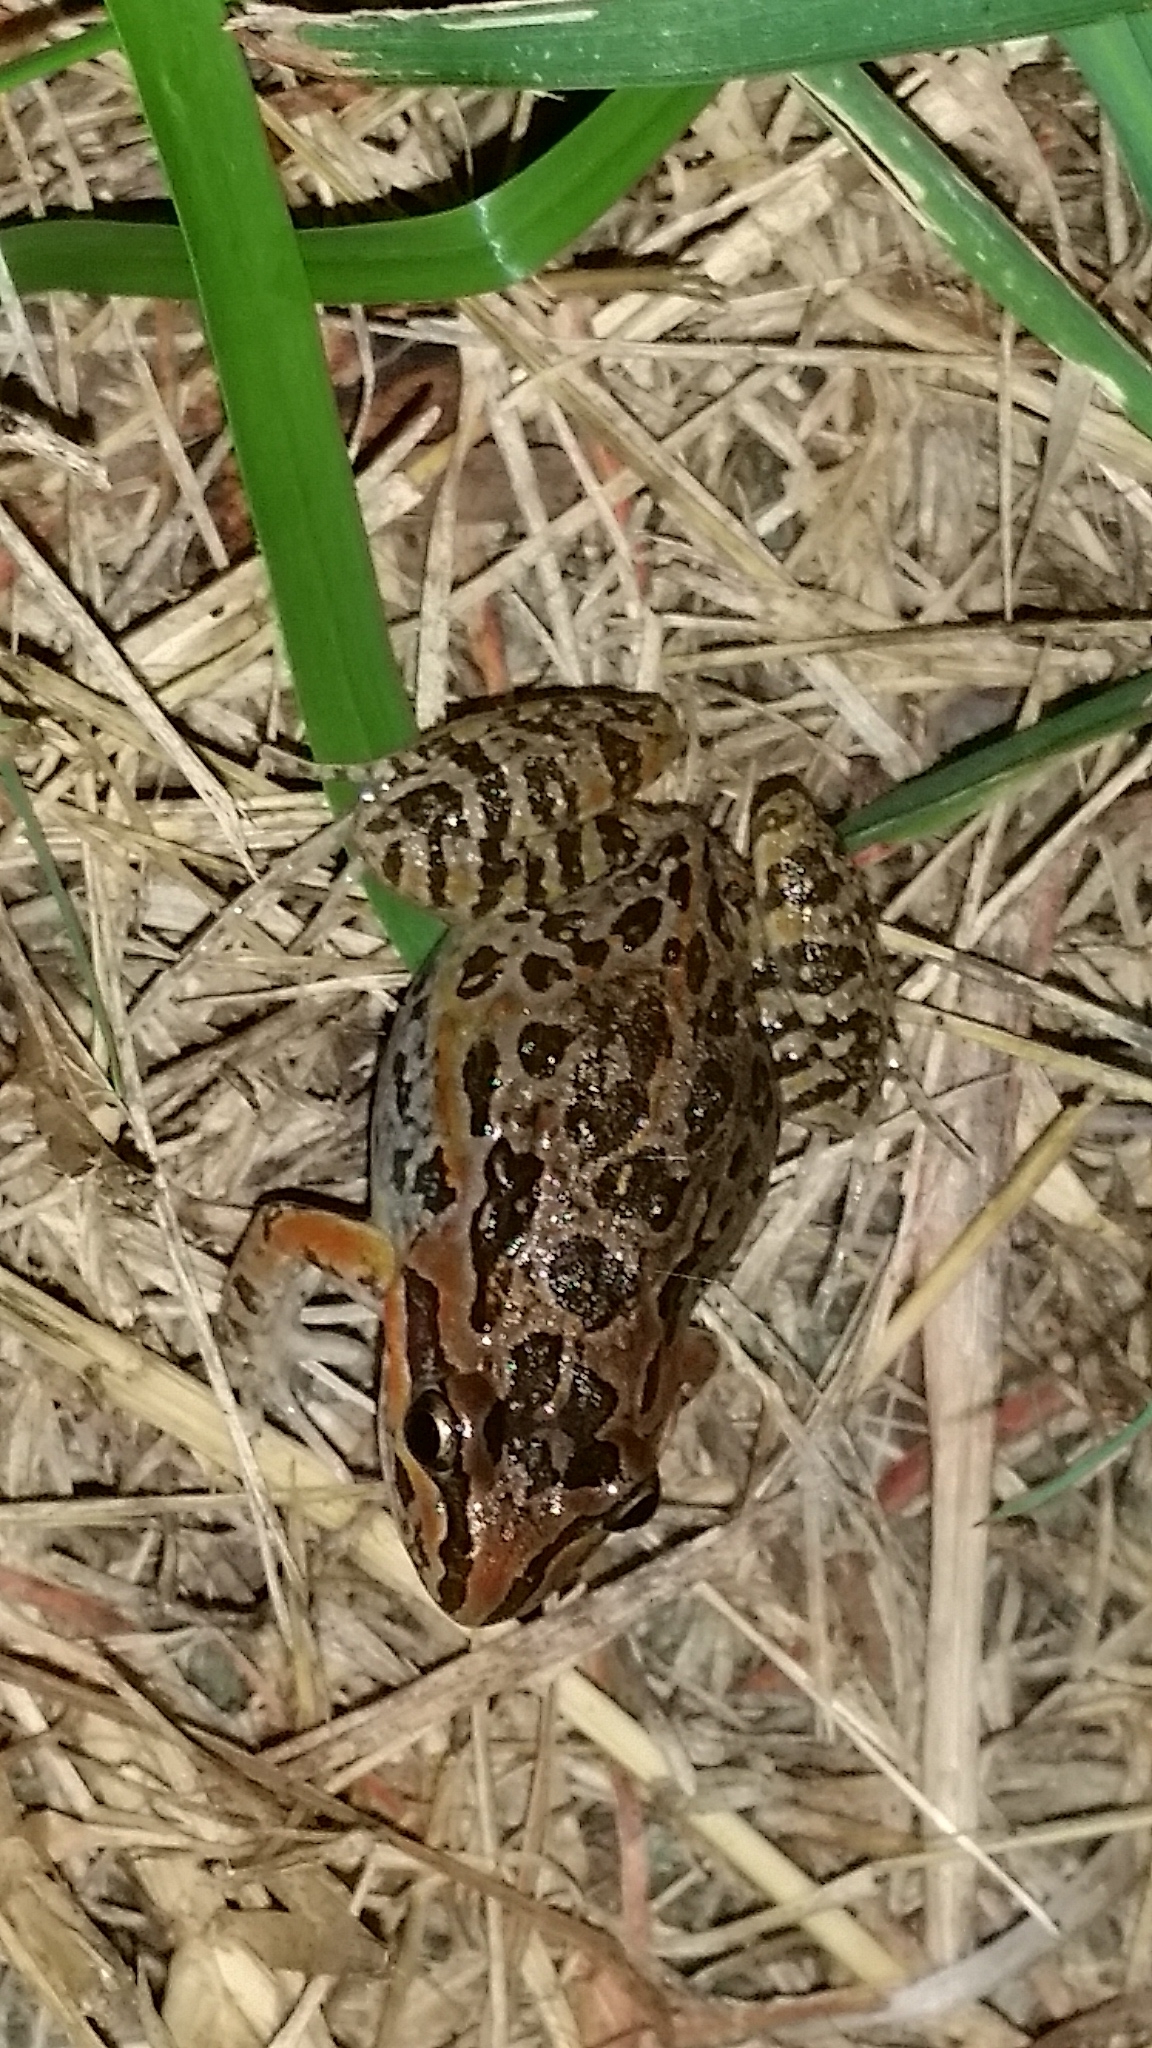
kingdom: Animalia
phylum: Chordata
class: Amphibia
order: Anura
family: Limnodynastidae
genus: Limnodynastes
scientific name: Limnodynastes salmini
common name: Salmon-striped frog
